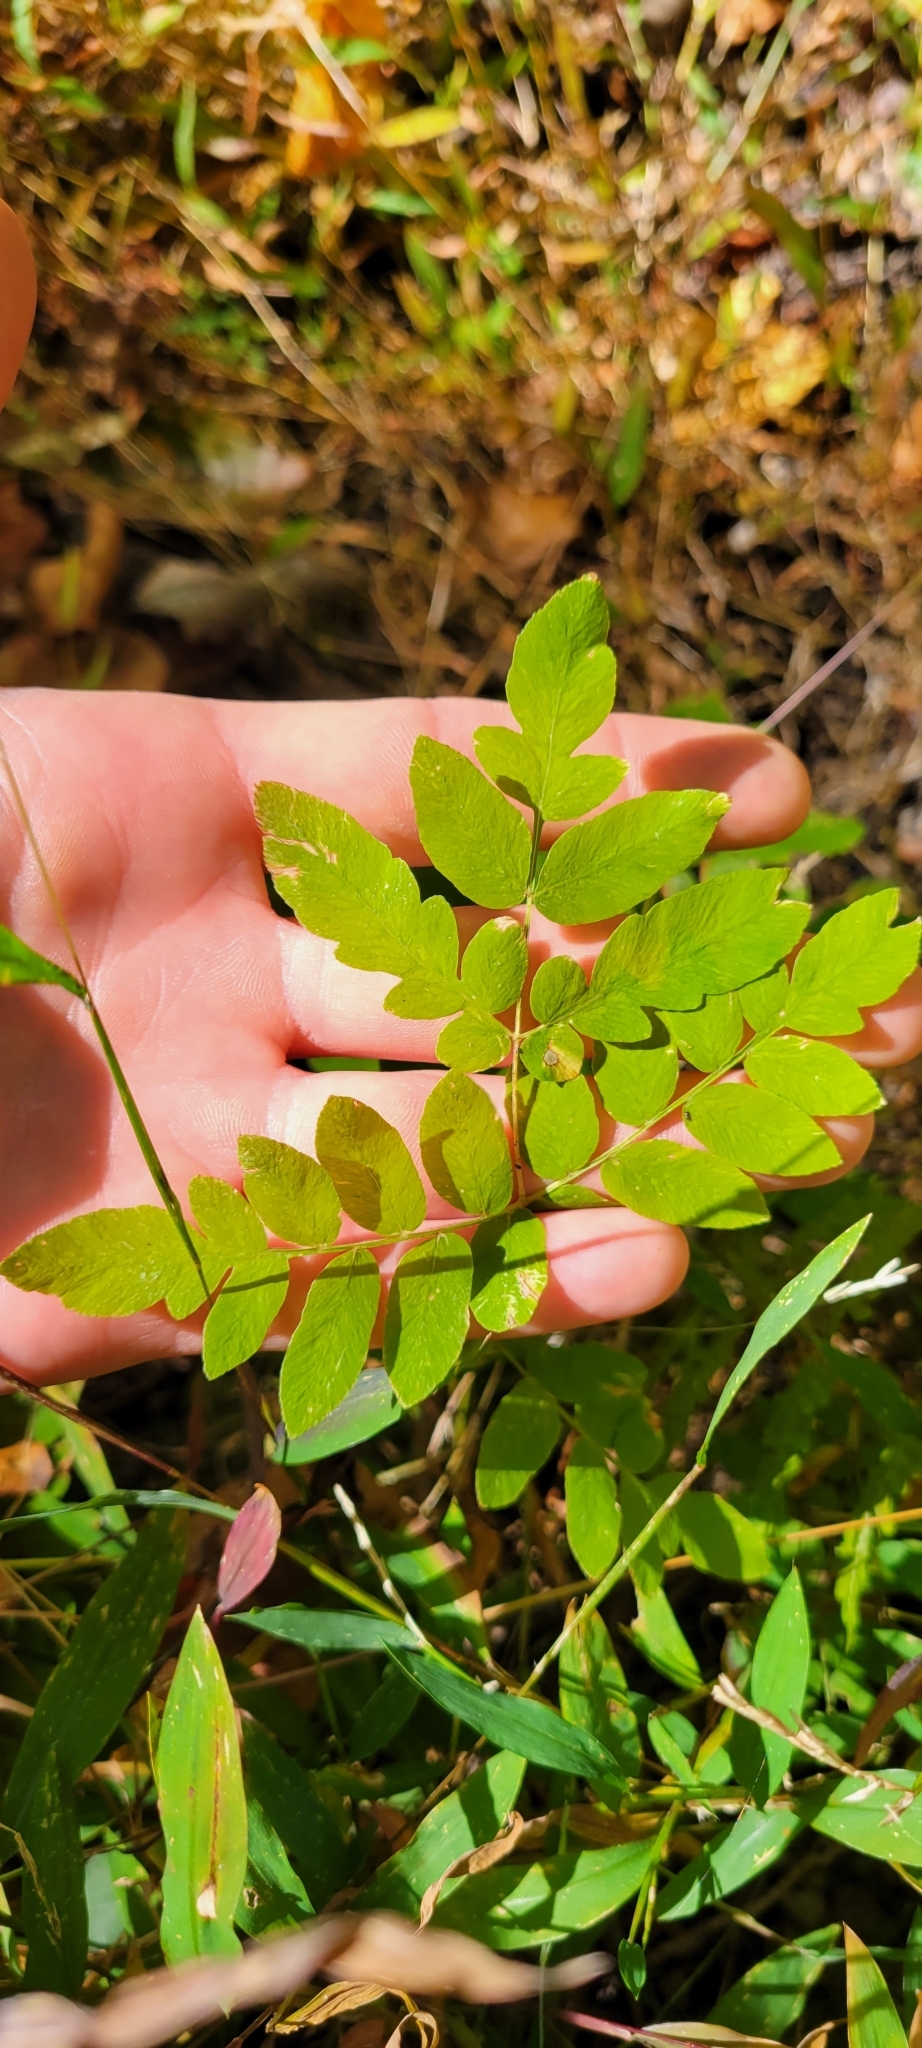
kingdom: Plantae
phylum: Tracheophyta
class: Polypodiopsida
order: Osmundales
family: Osmundaceae
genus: Osmunda
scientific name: Osmunda spectabilis
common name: American royal fern
